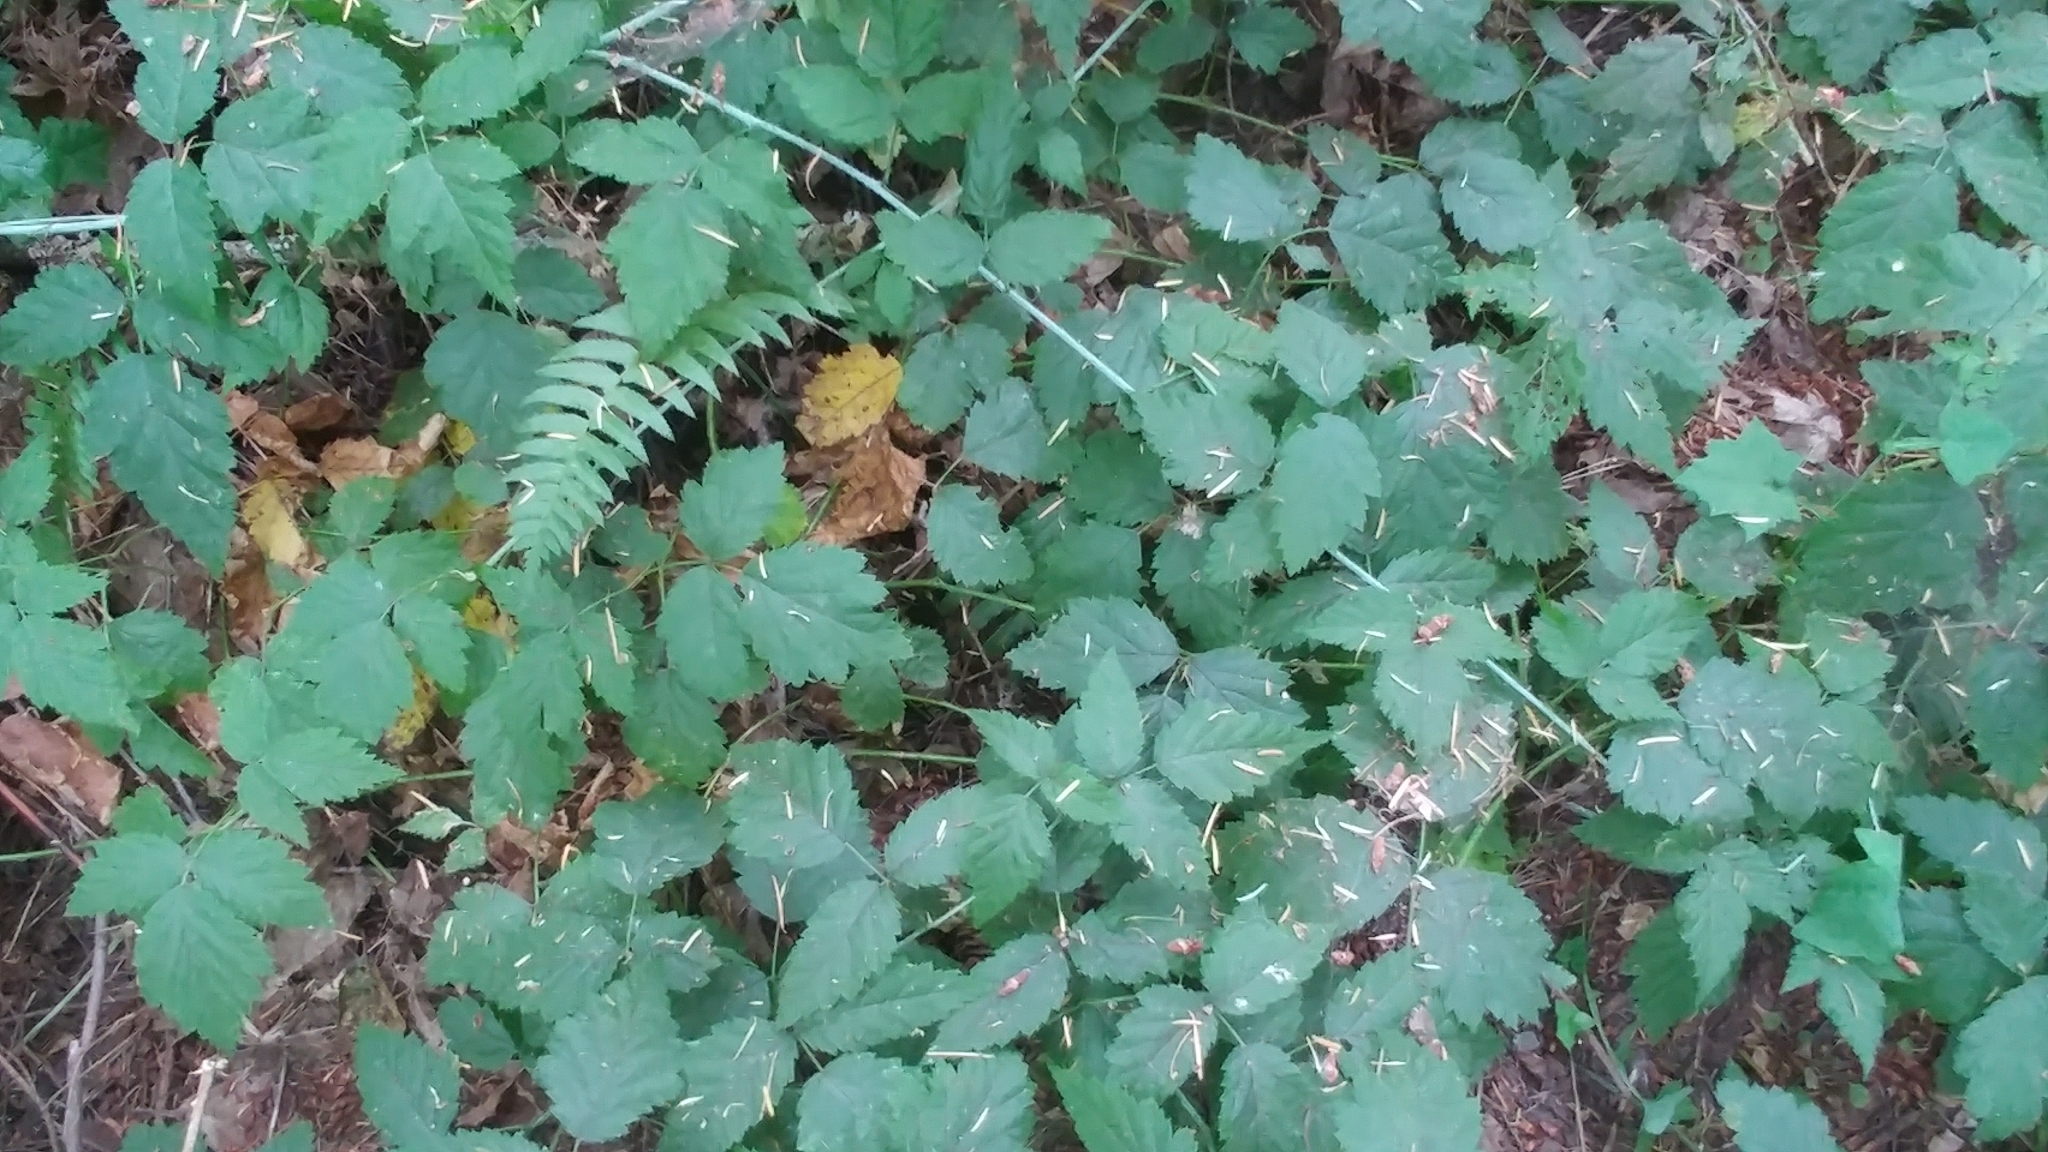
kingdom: Plantae
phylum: Tracheophyta
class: Magnoliopsida
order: Rosales
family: Rosaceae
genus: Rubus
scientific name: Rubus ursinus
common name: Pacific blackberry
